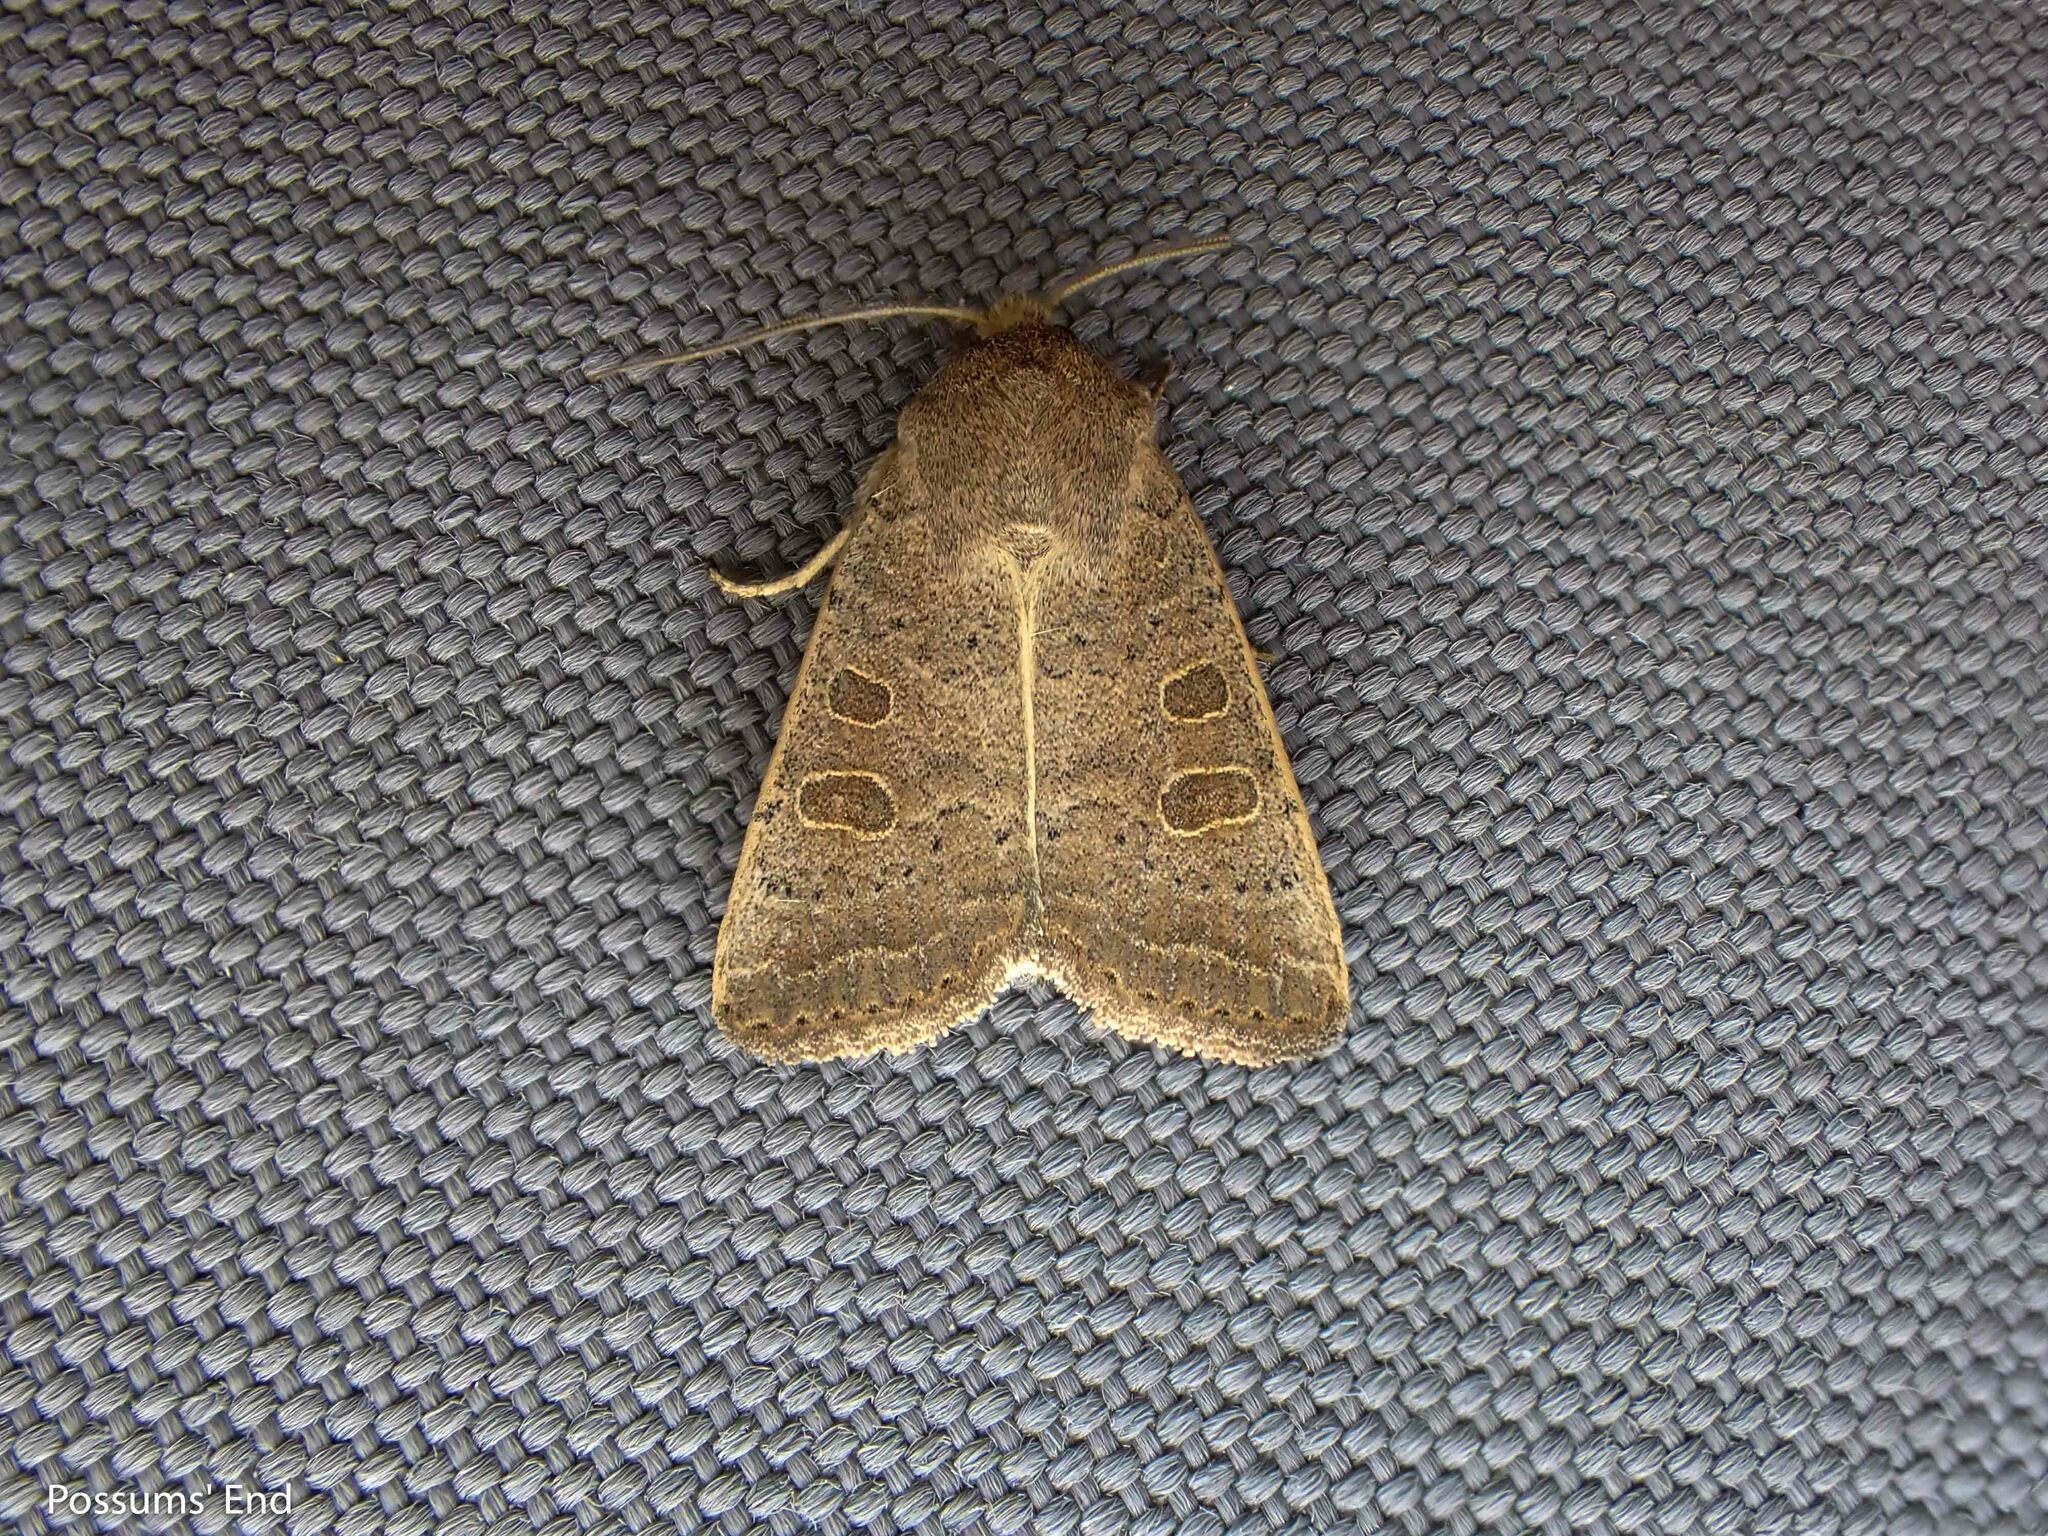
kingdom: Animalia
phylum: Arthropoda
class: Insecta
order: Lepidoptera
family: Noctuidae
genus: Hoplodrina
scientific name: Hoplodrina ambigua
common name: Vine's rustic
